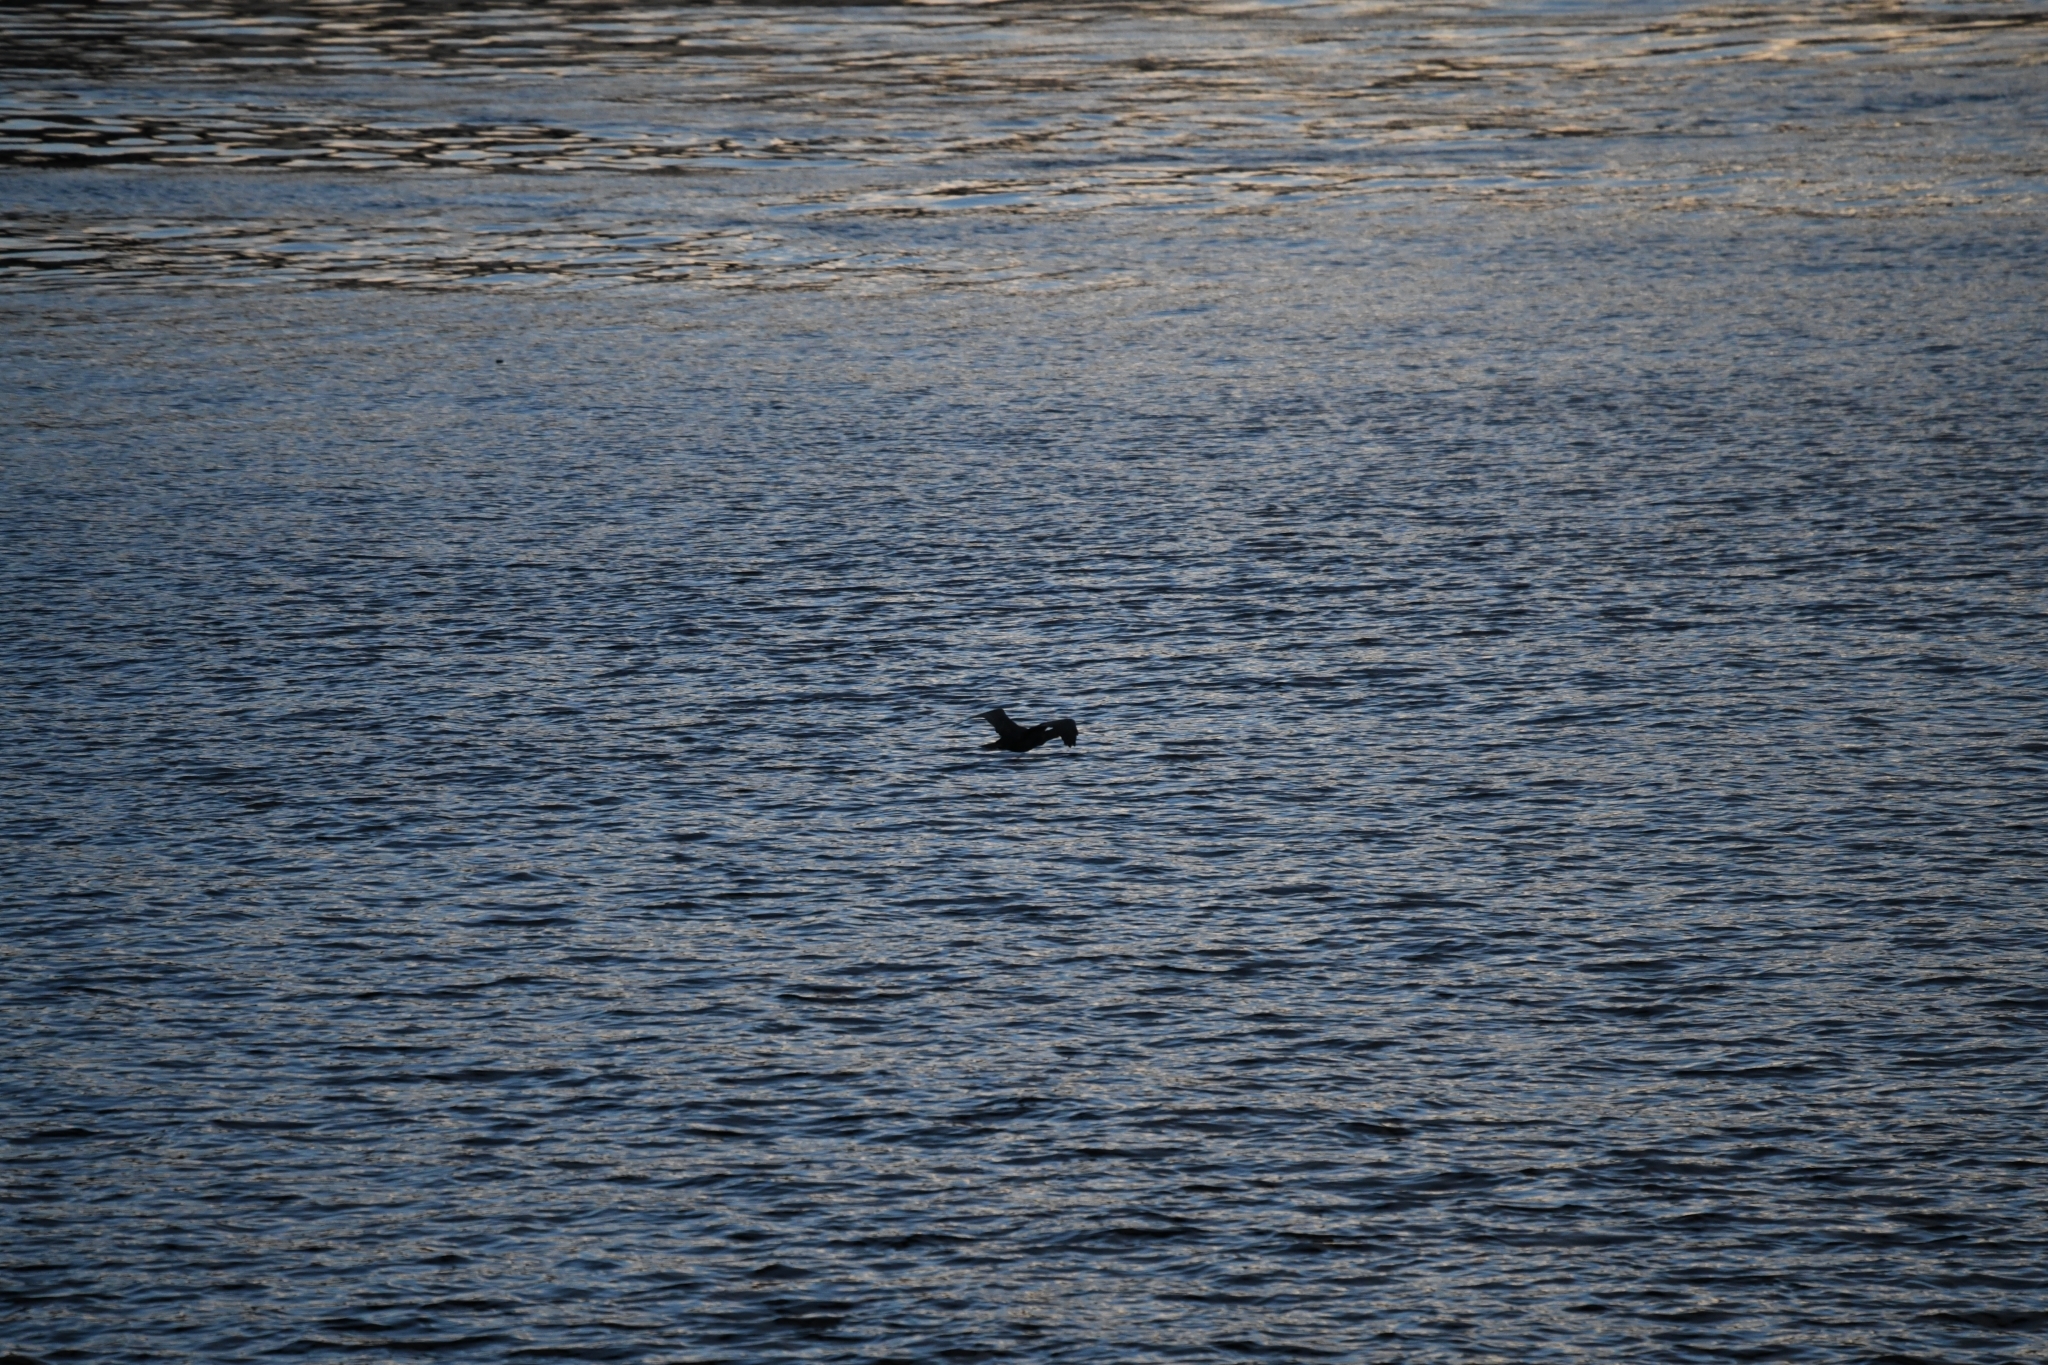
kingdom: Animalia
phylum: Chordata
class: Aves
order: Suliformes
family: Phalacrocoracidae
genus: Phalacrocorax
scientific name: Phalacrocorax carbo
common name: Great cormorant
